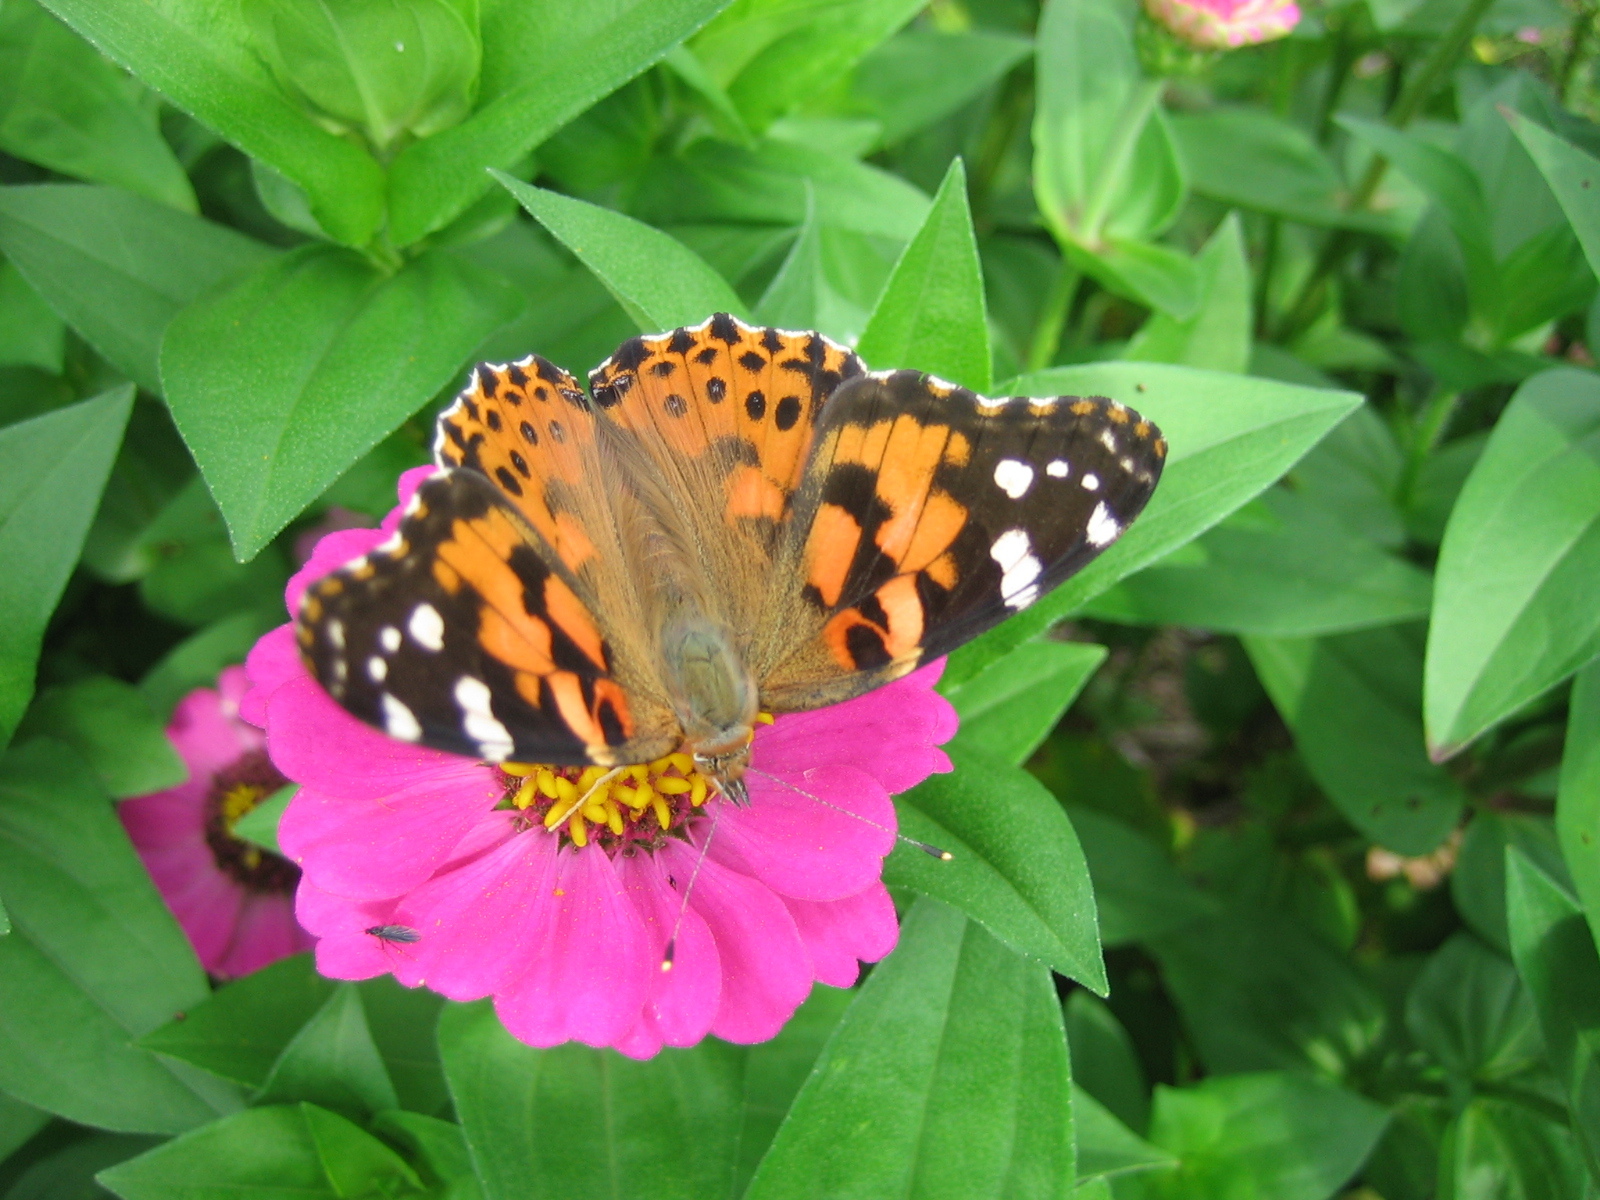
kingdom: Animalia
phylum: Arthropoda
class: Insecta
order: Lepidoptera
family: Nymphalidae
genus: Vanessa
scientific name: Vanessa cardui
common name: Painted lady
